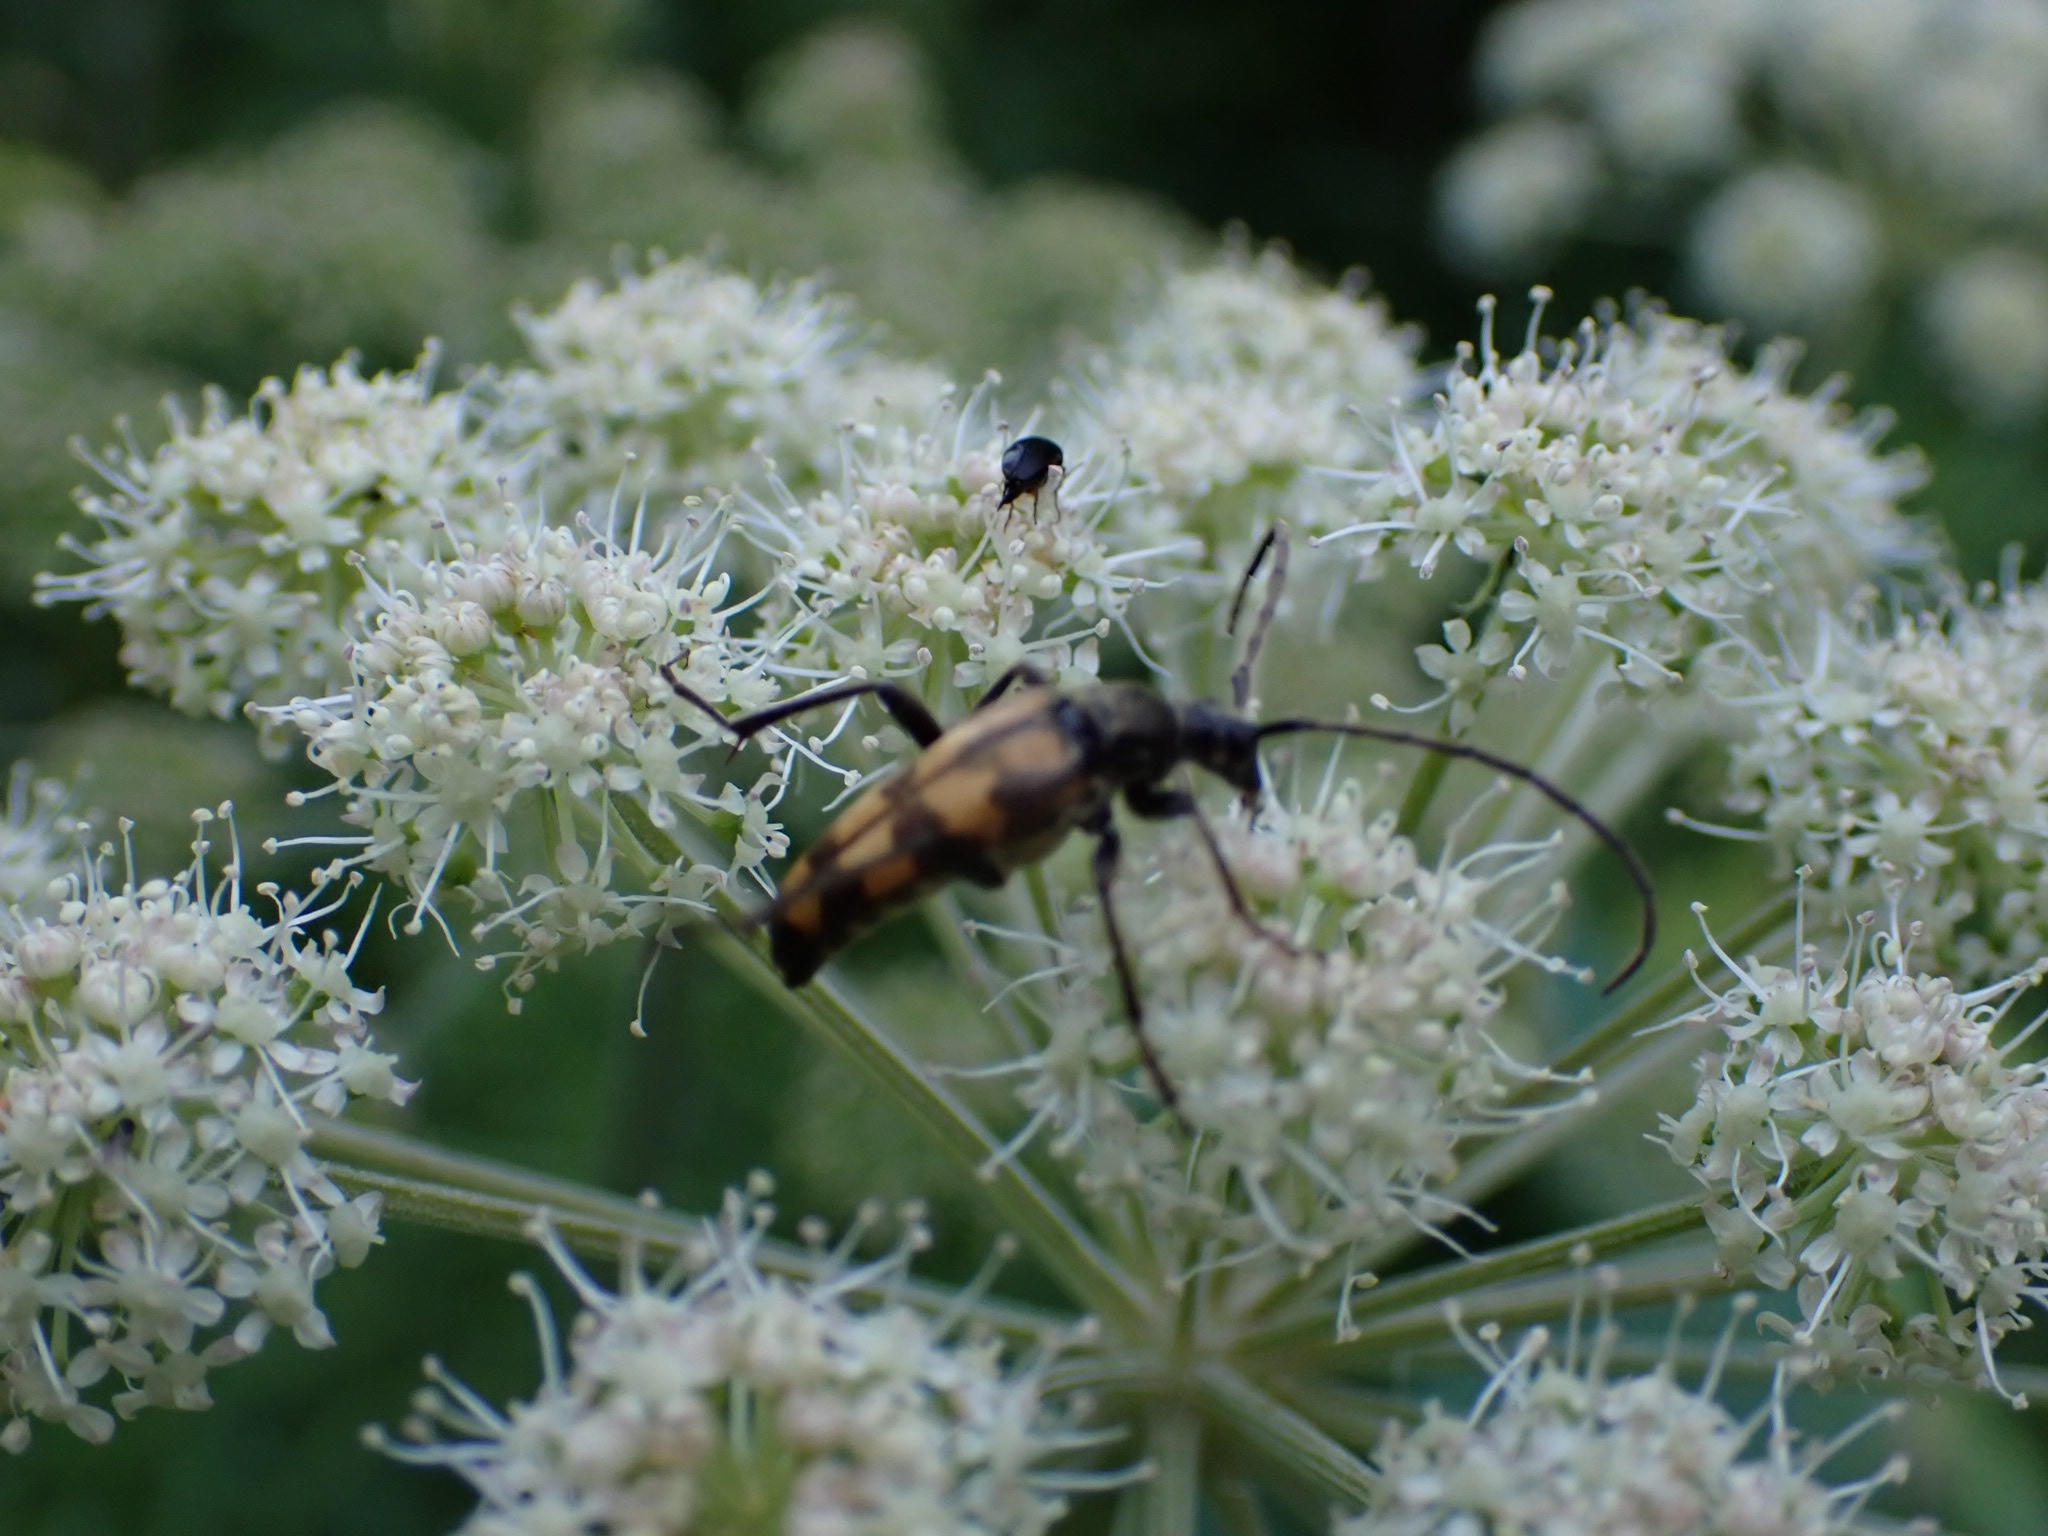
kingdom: Animalia
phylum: Arthropoda
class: Insecta
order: Coleoptera
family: Cerambycidae
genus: Leptura
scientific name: Leptura quadrifasciata
